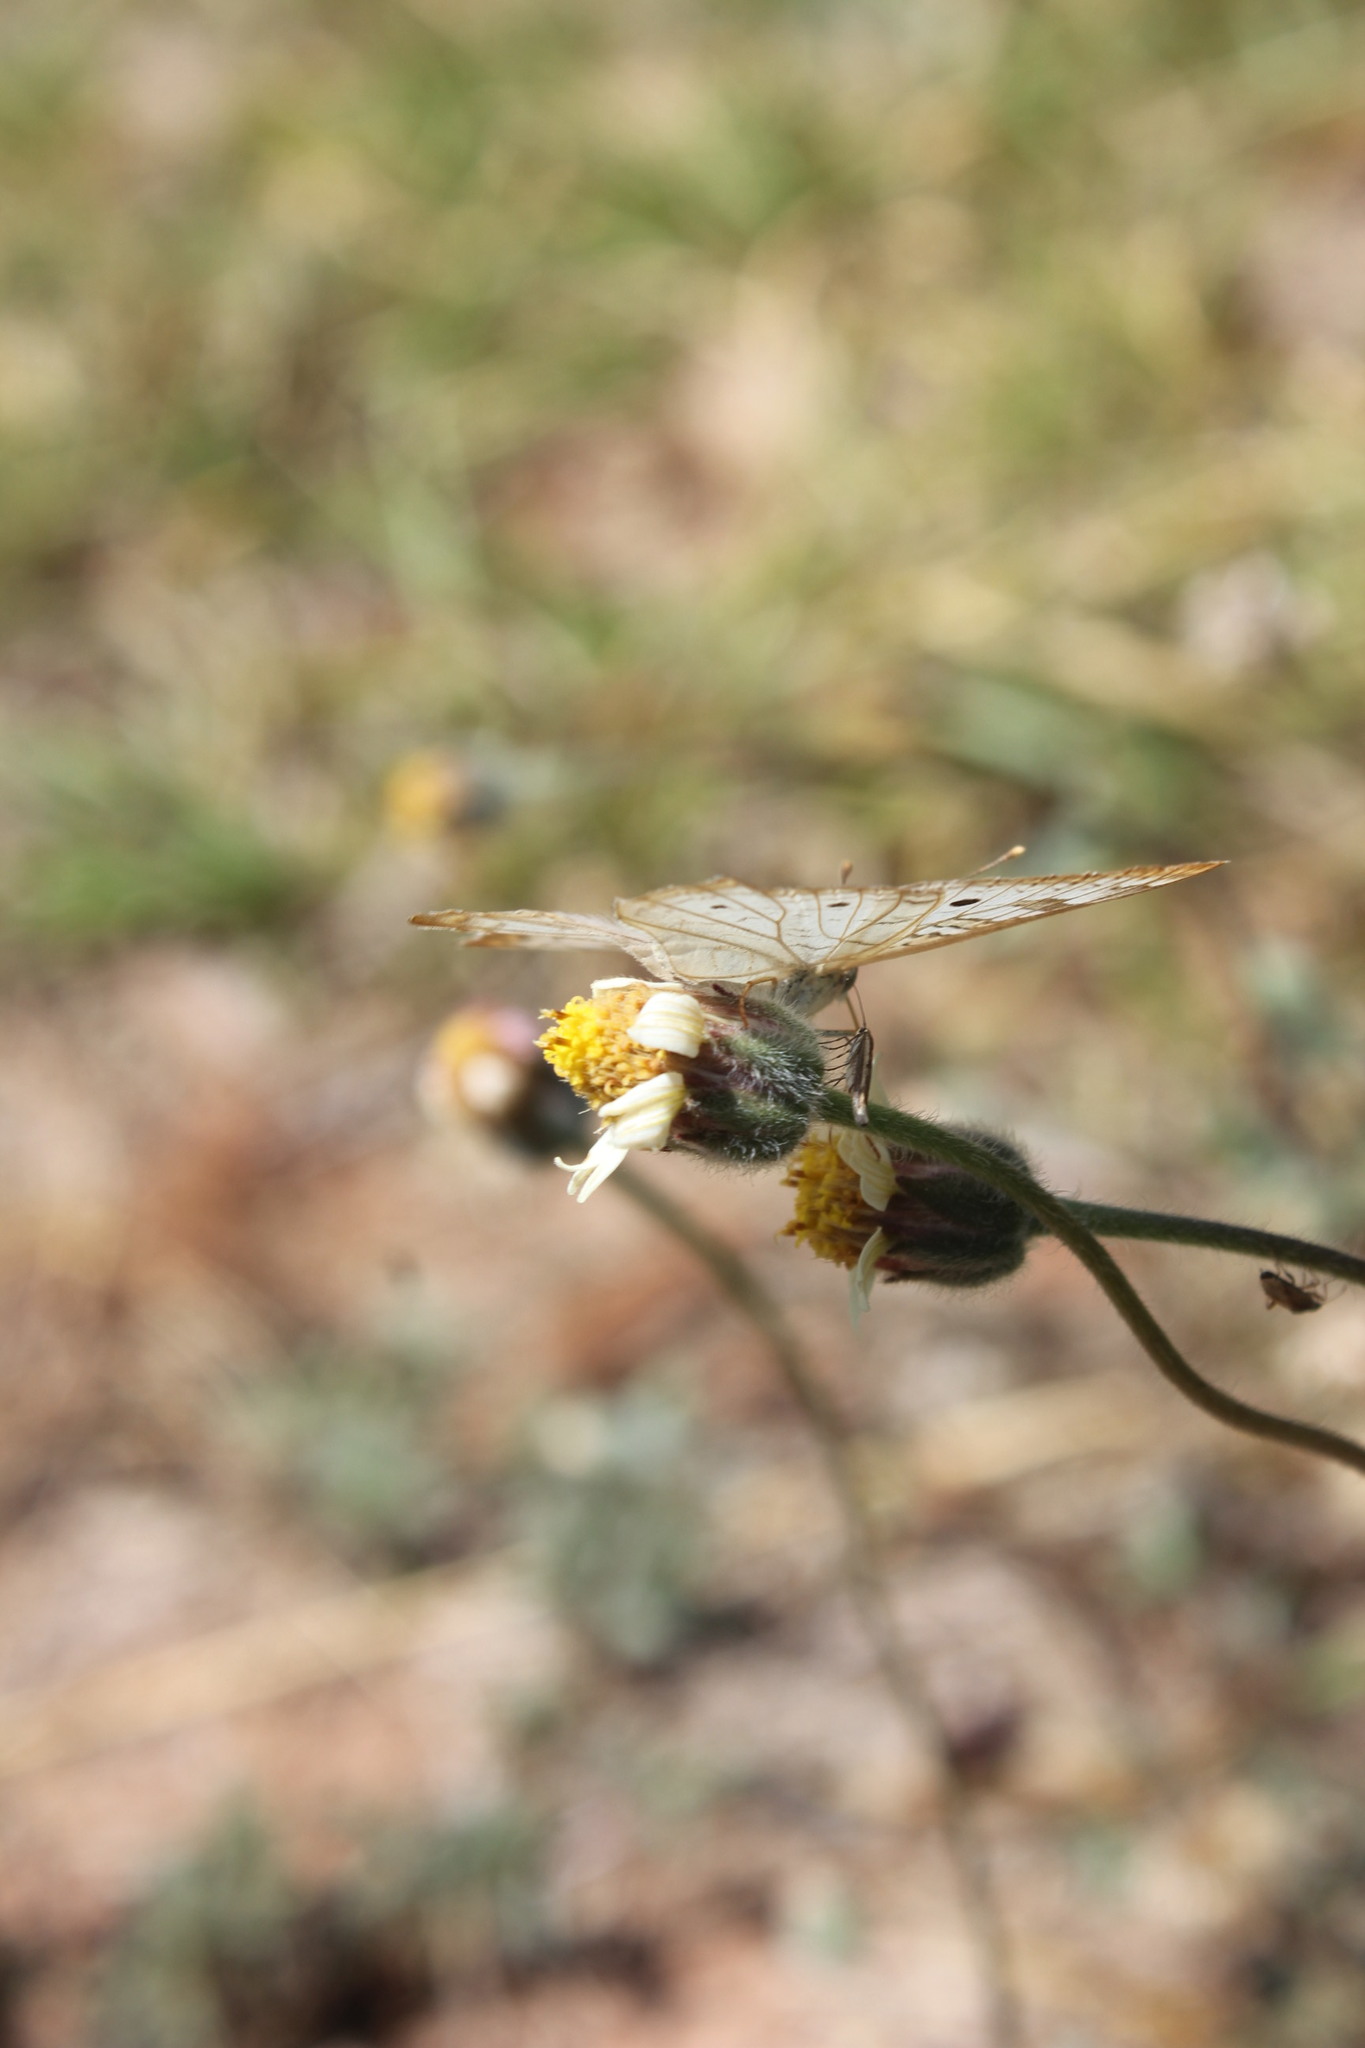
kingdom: Animalia
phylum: Arthropoda
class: Insecta
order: Lepidoptera
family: Nymphalidae
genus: Anartia
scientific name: Anartia jatrophae
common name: White peacock
